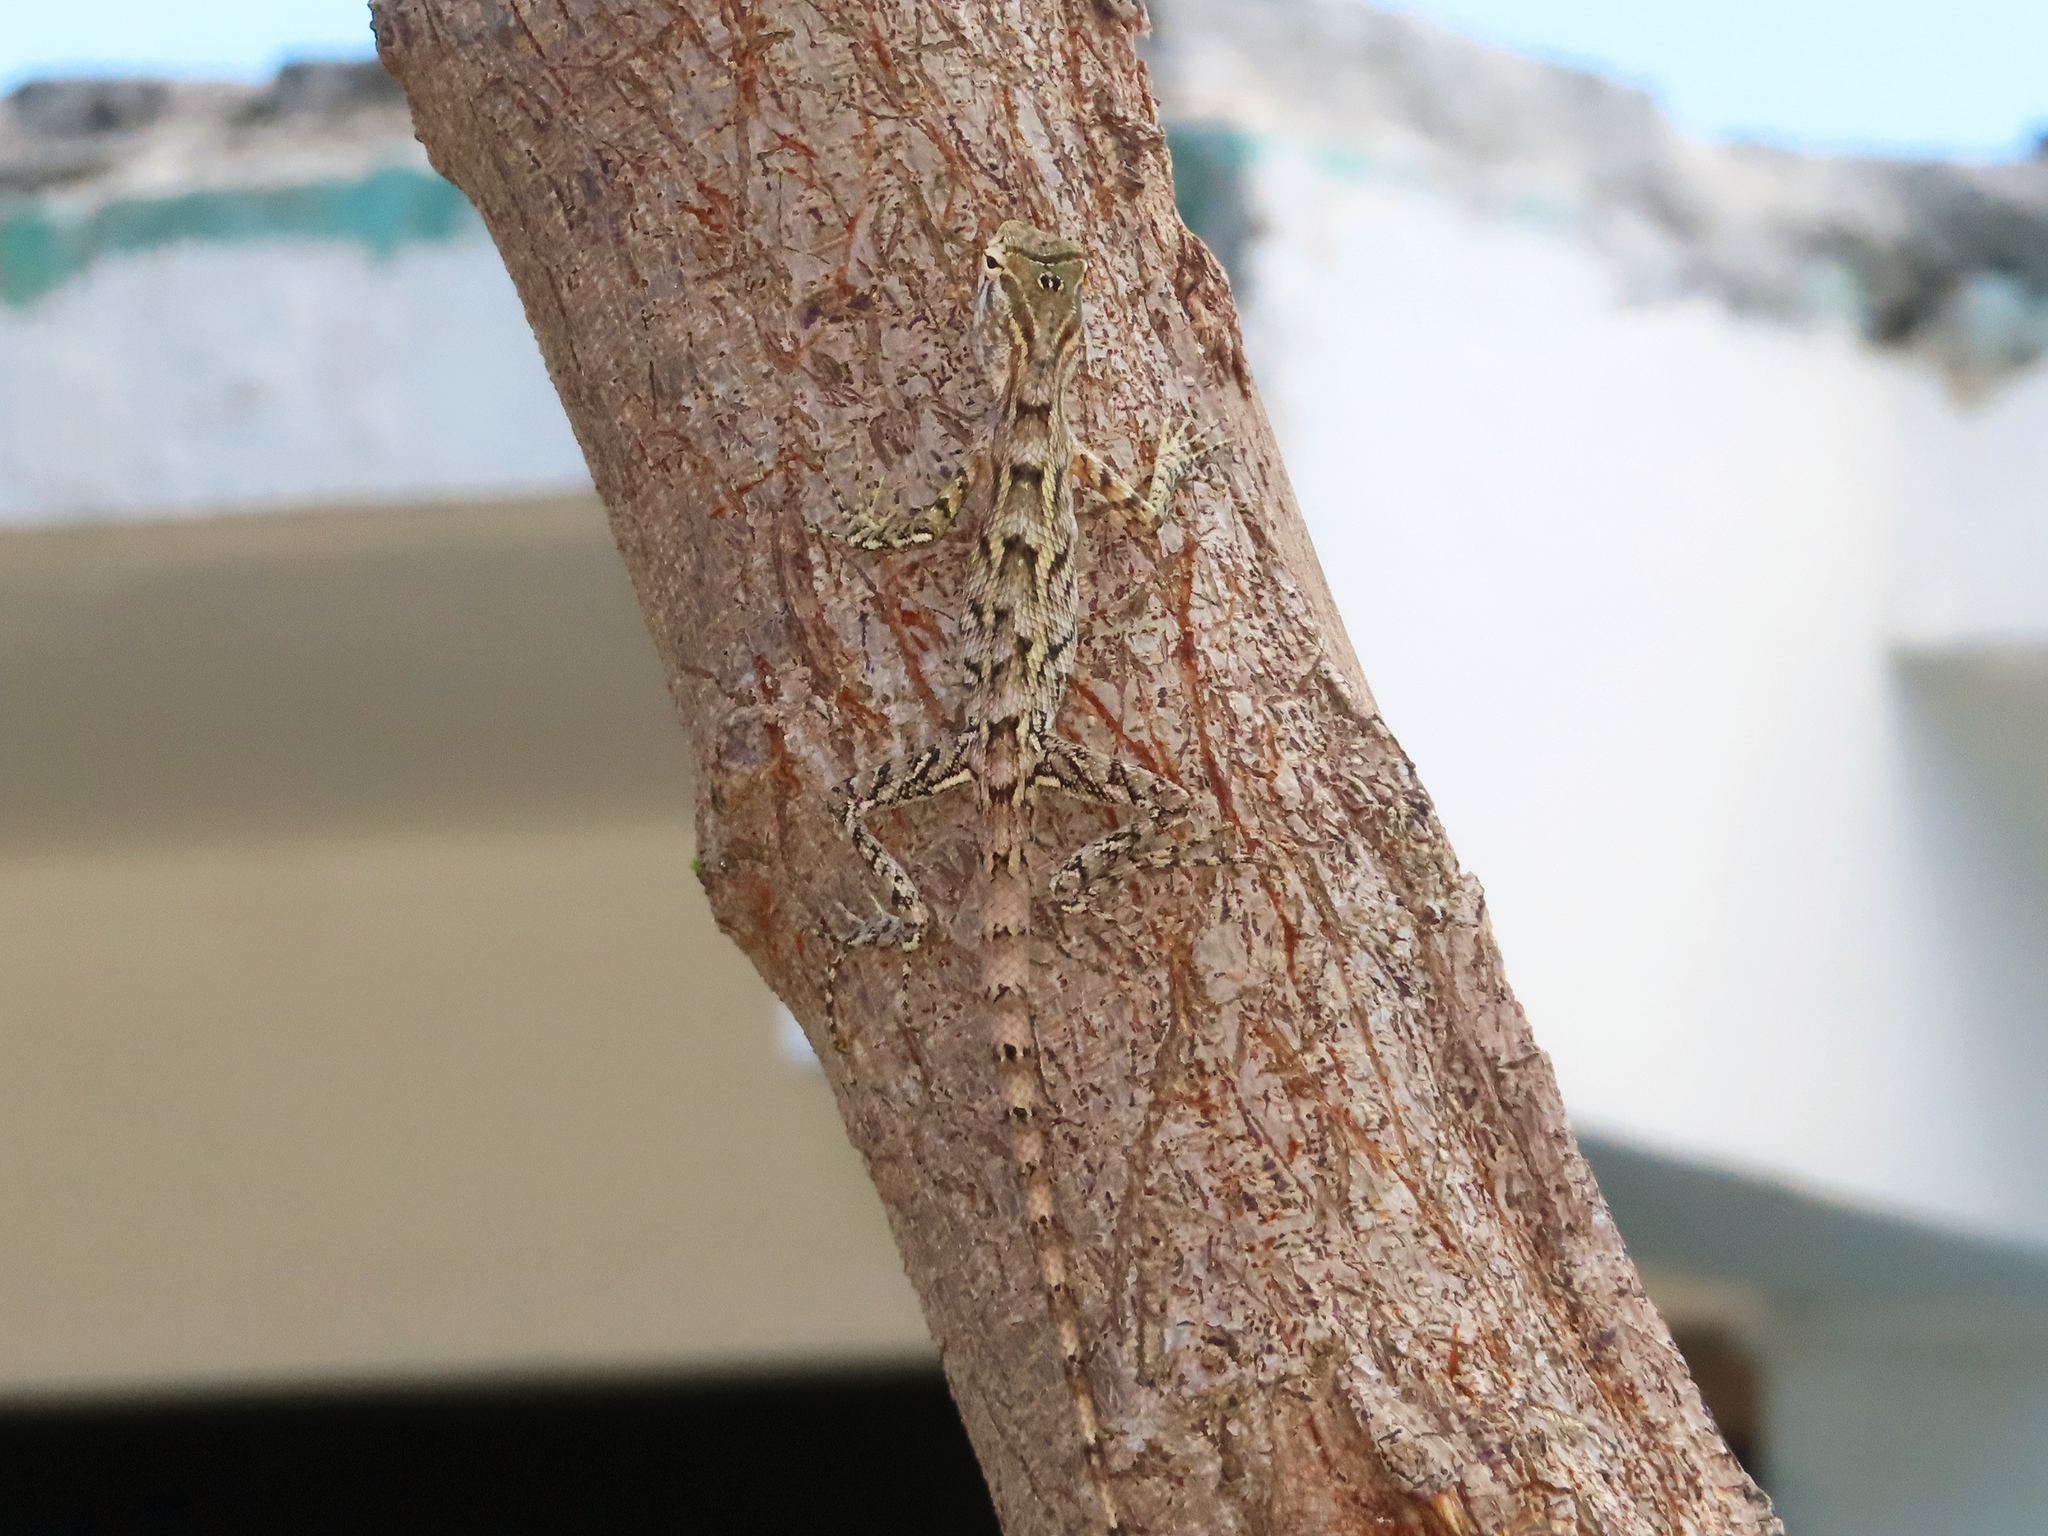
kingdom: Animalia
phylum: Chordata
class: Squamata
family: Agamidae
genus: Calotes
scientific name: Calotes versicolor
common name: Oriental garden lizard
